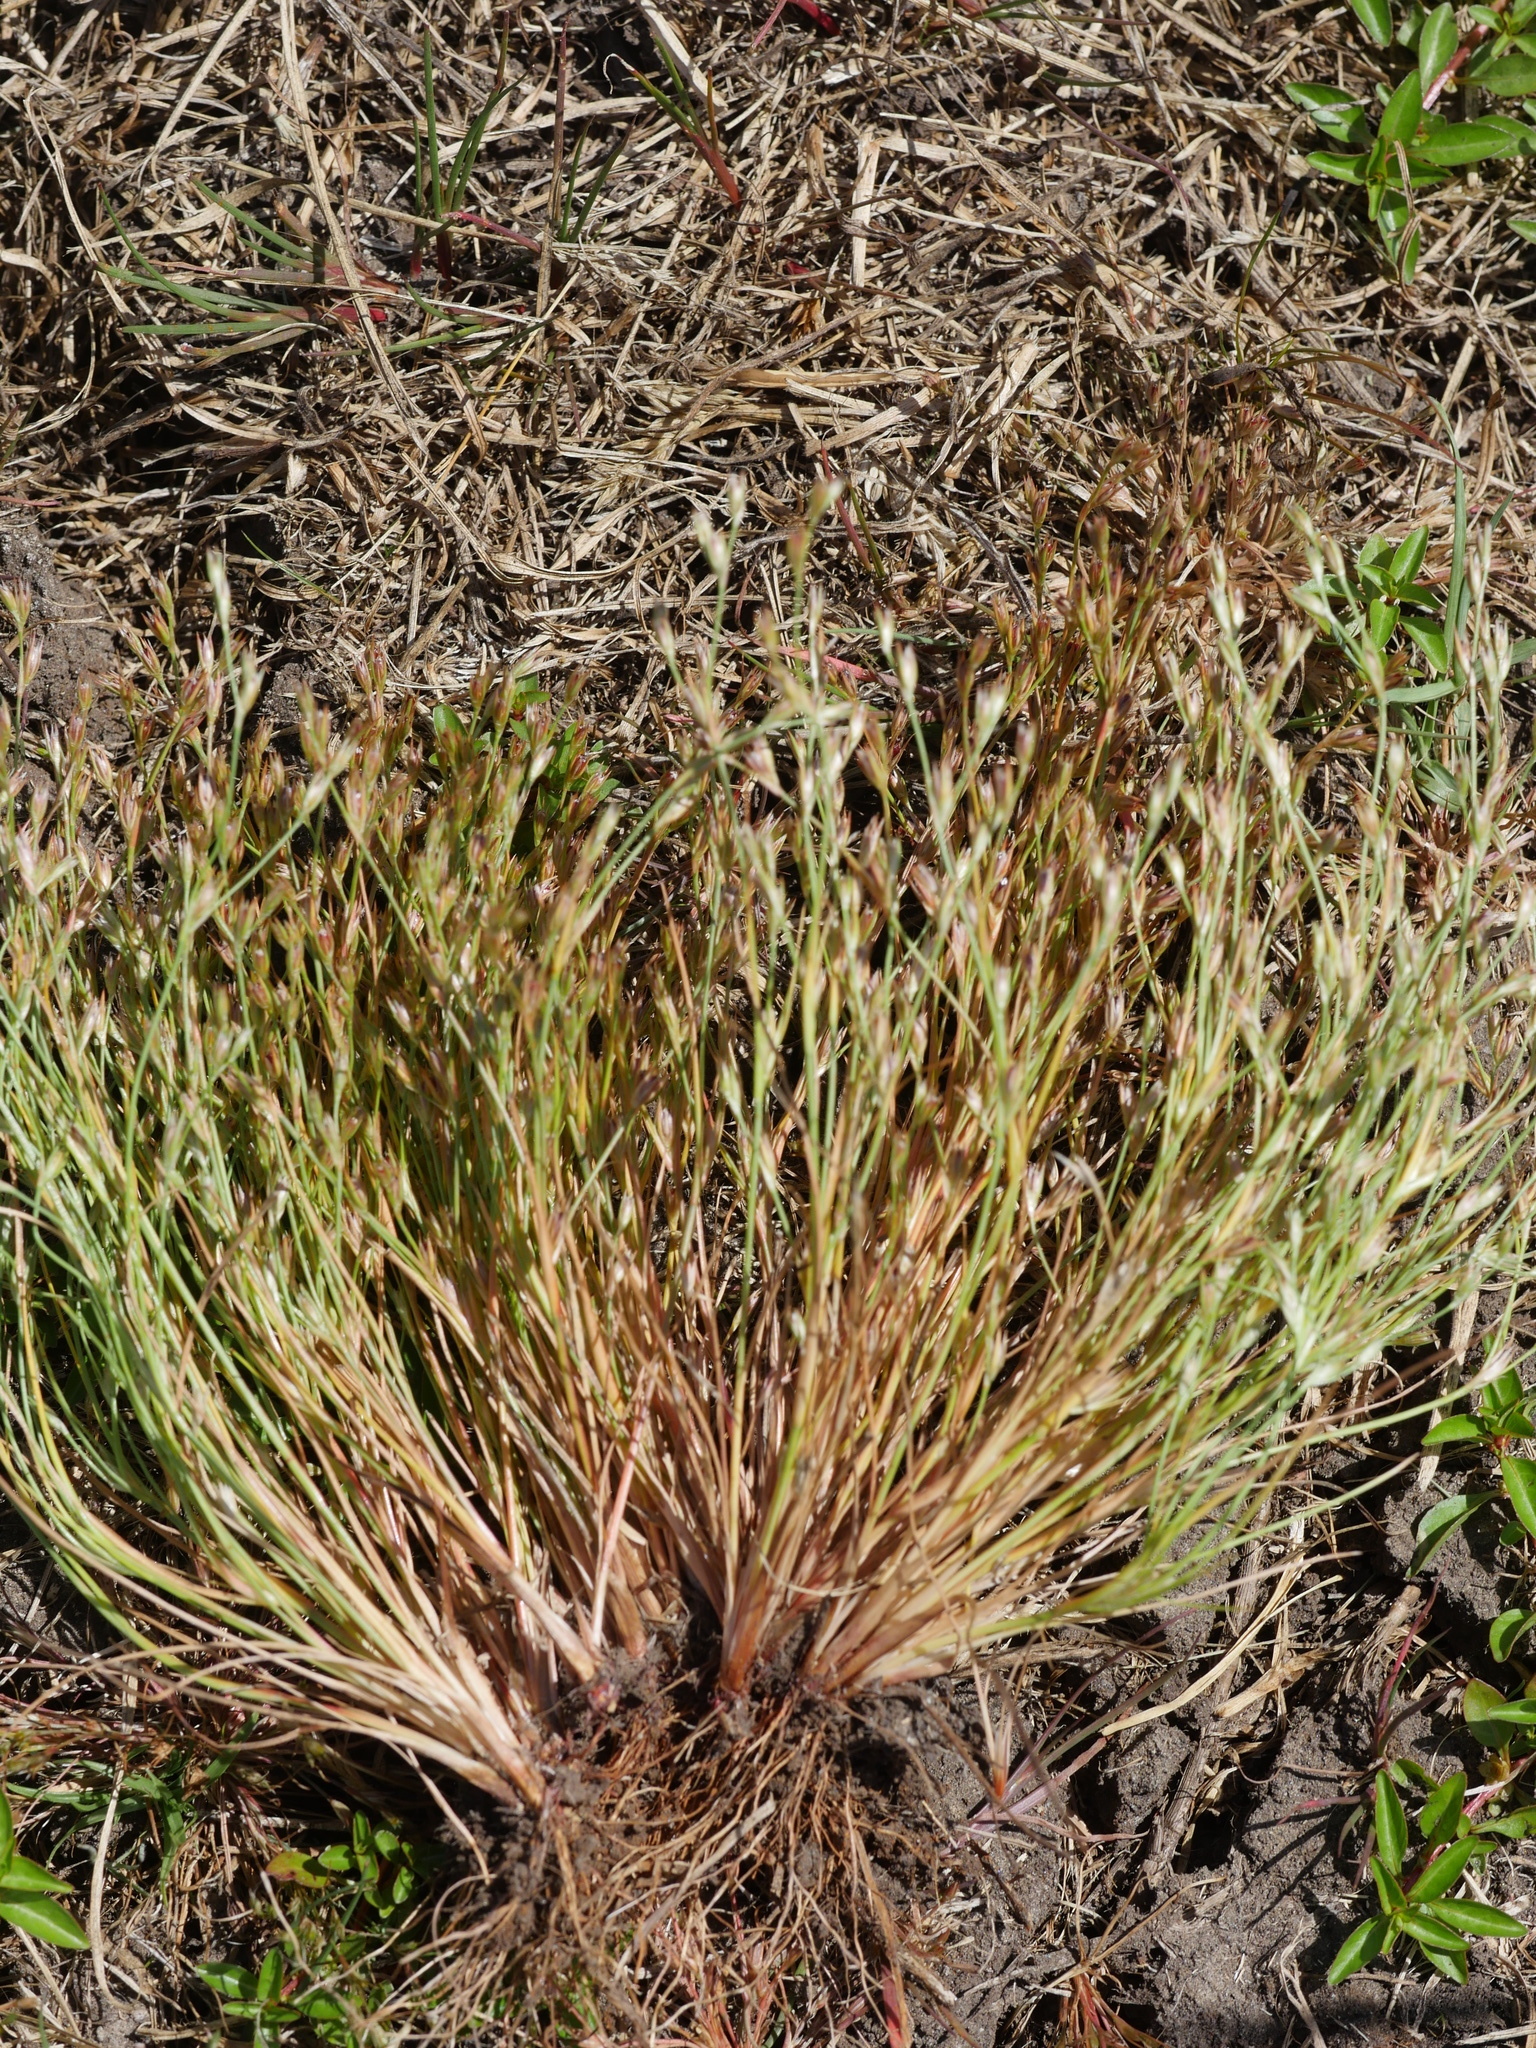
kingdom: Plantae
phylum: Tracheophyta
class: Liliopsida
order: Poales
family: Juncaceae
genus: Juncus
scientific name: Juncus bufonius
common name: Toad rush
